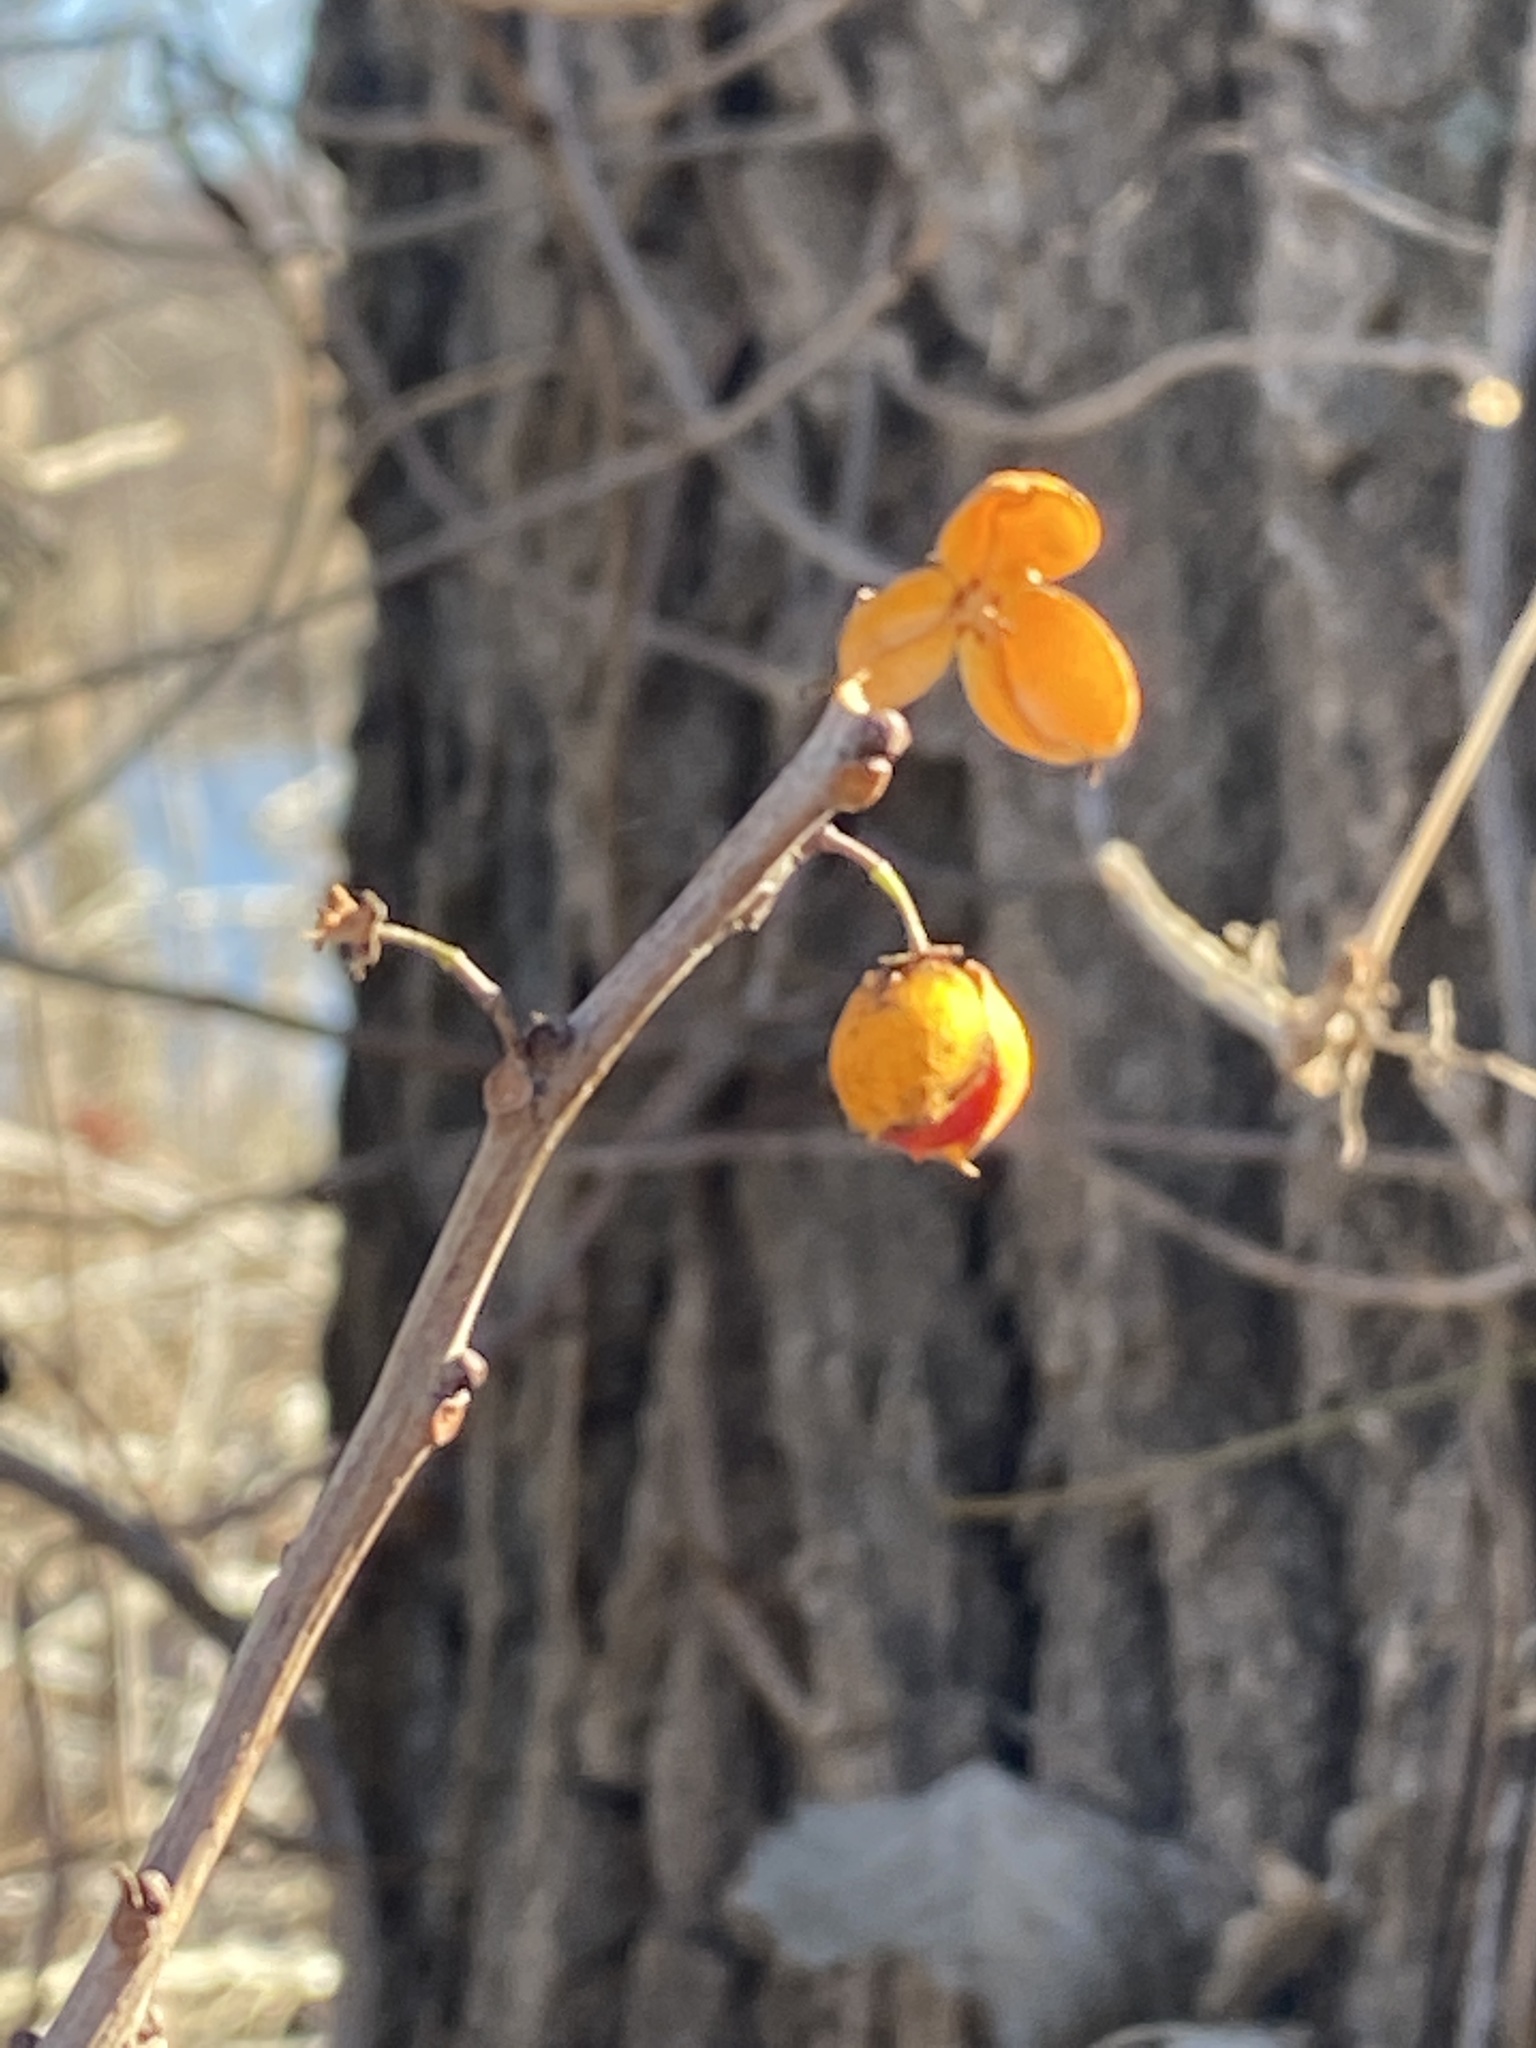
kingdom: Plantae
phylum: Tracheophyta
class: Magnoliopsida
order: Celastrales
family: Celastraceae
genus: Celastrus
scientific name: Celastrus orbiculatus
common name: Oriental bittersweet
